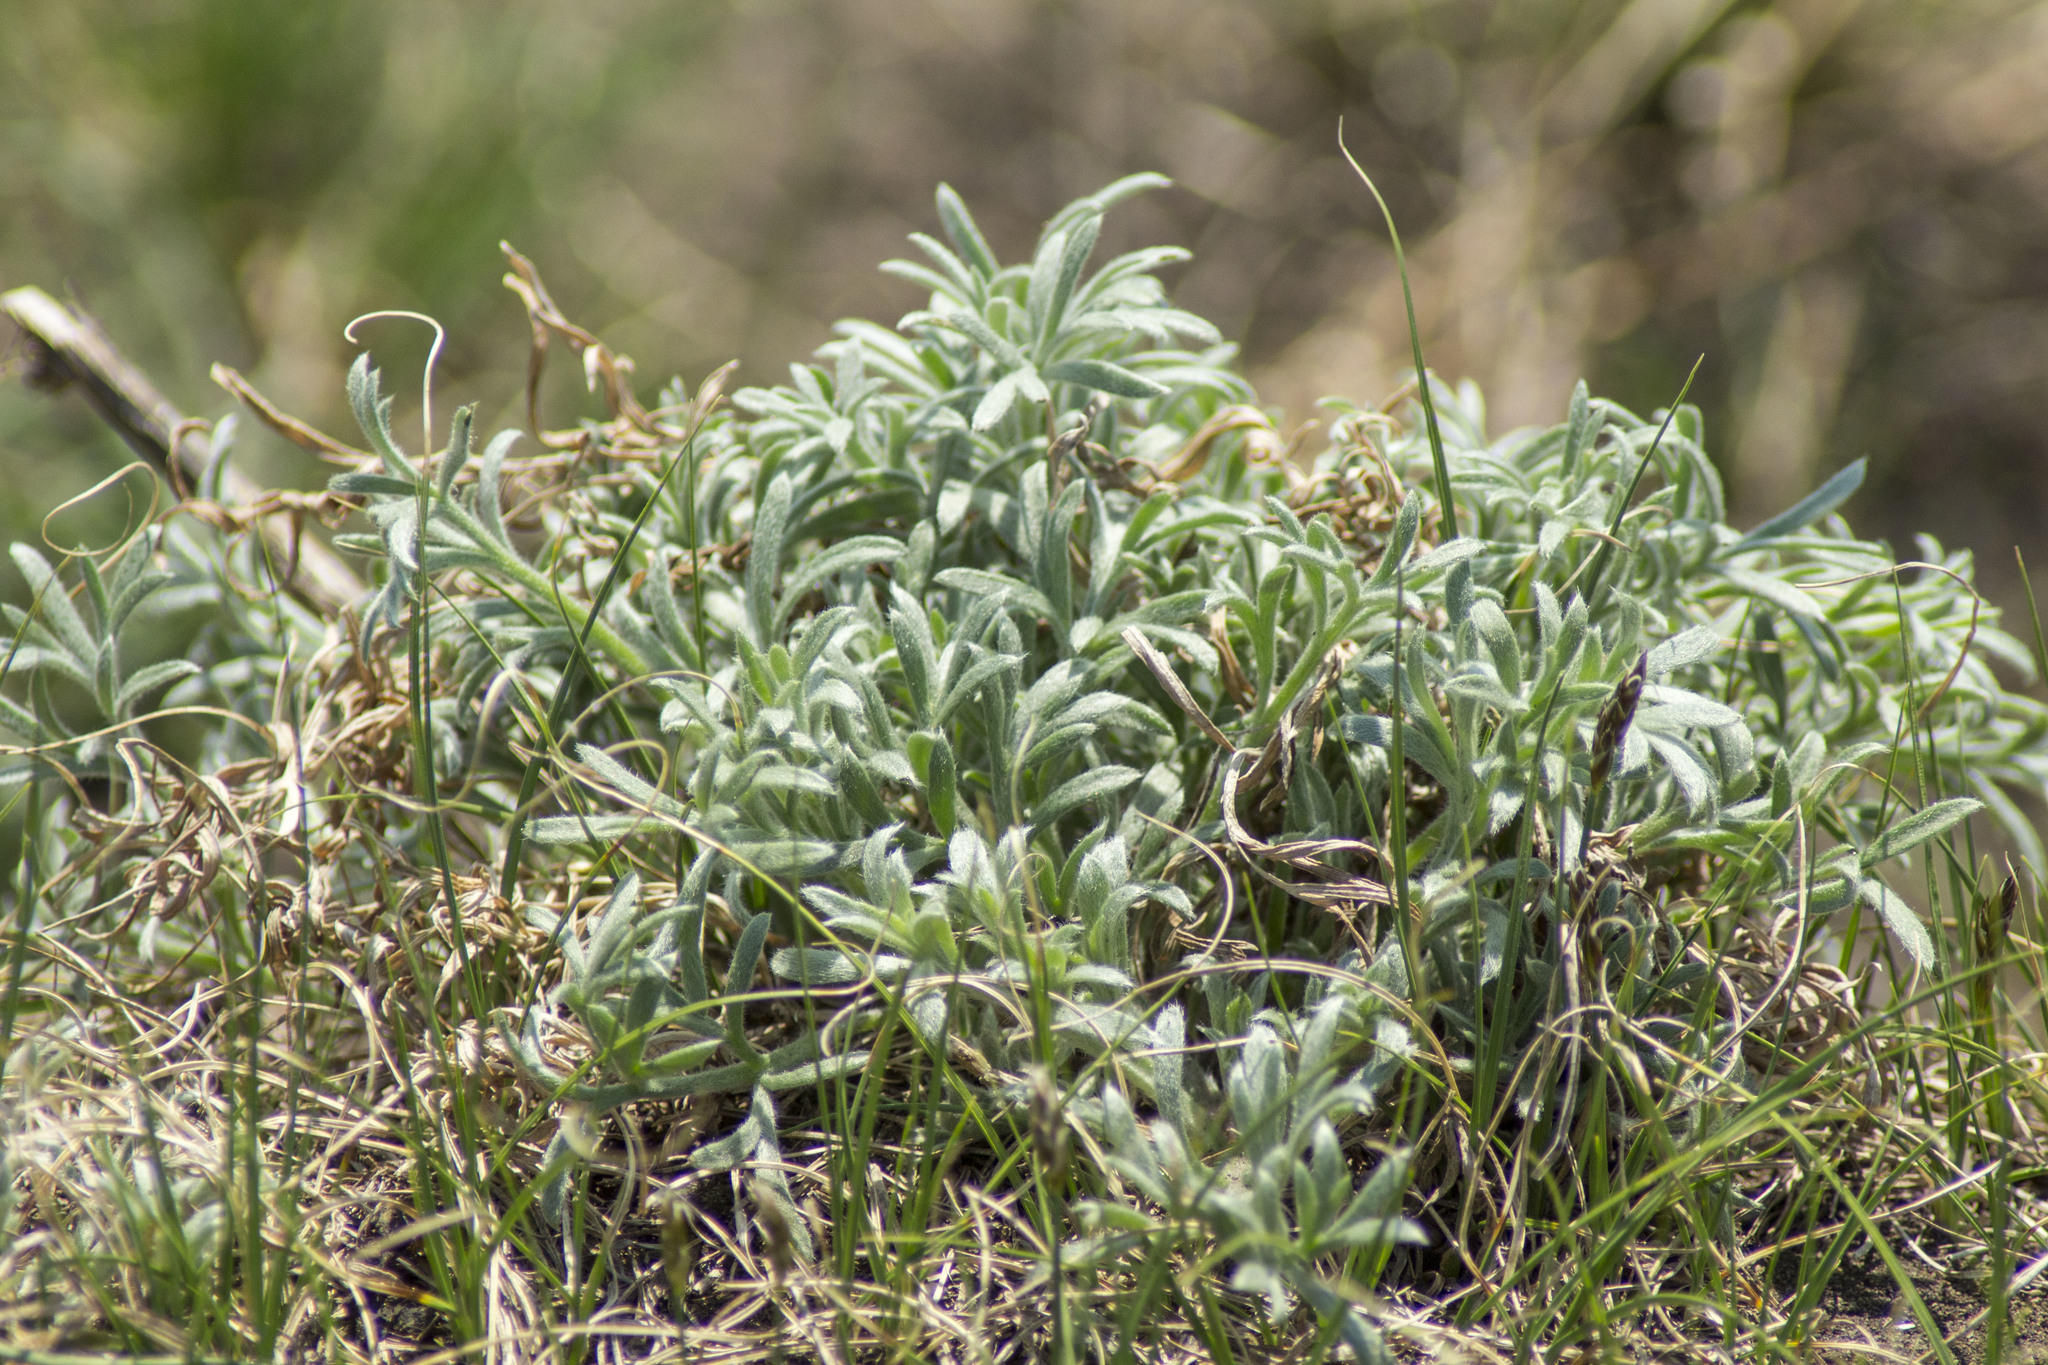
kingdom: Plantae
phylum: Tracheophyta
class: Magnoliopsida
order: Boraginales
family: Boraginaceae
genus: Onosma
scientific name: Onosma simplicissima
